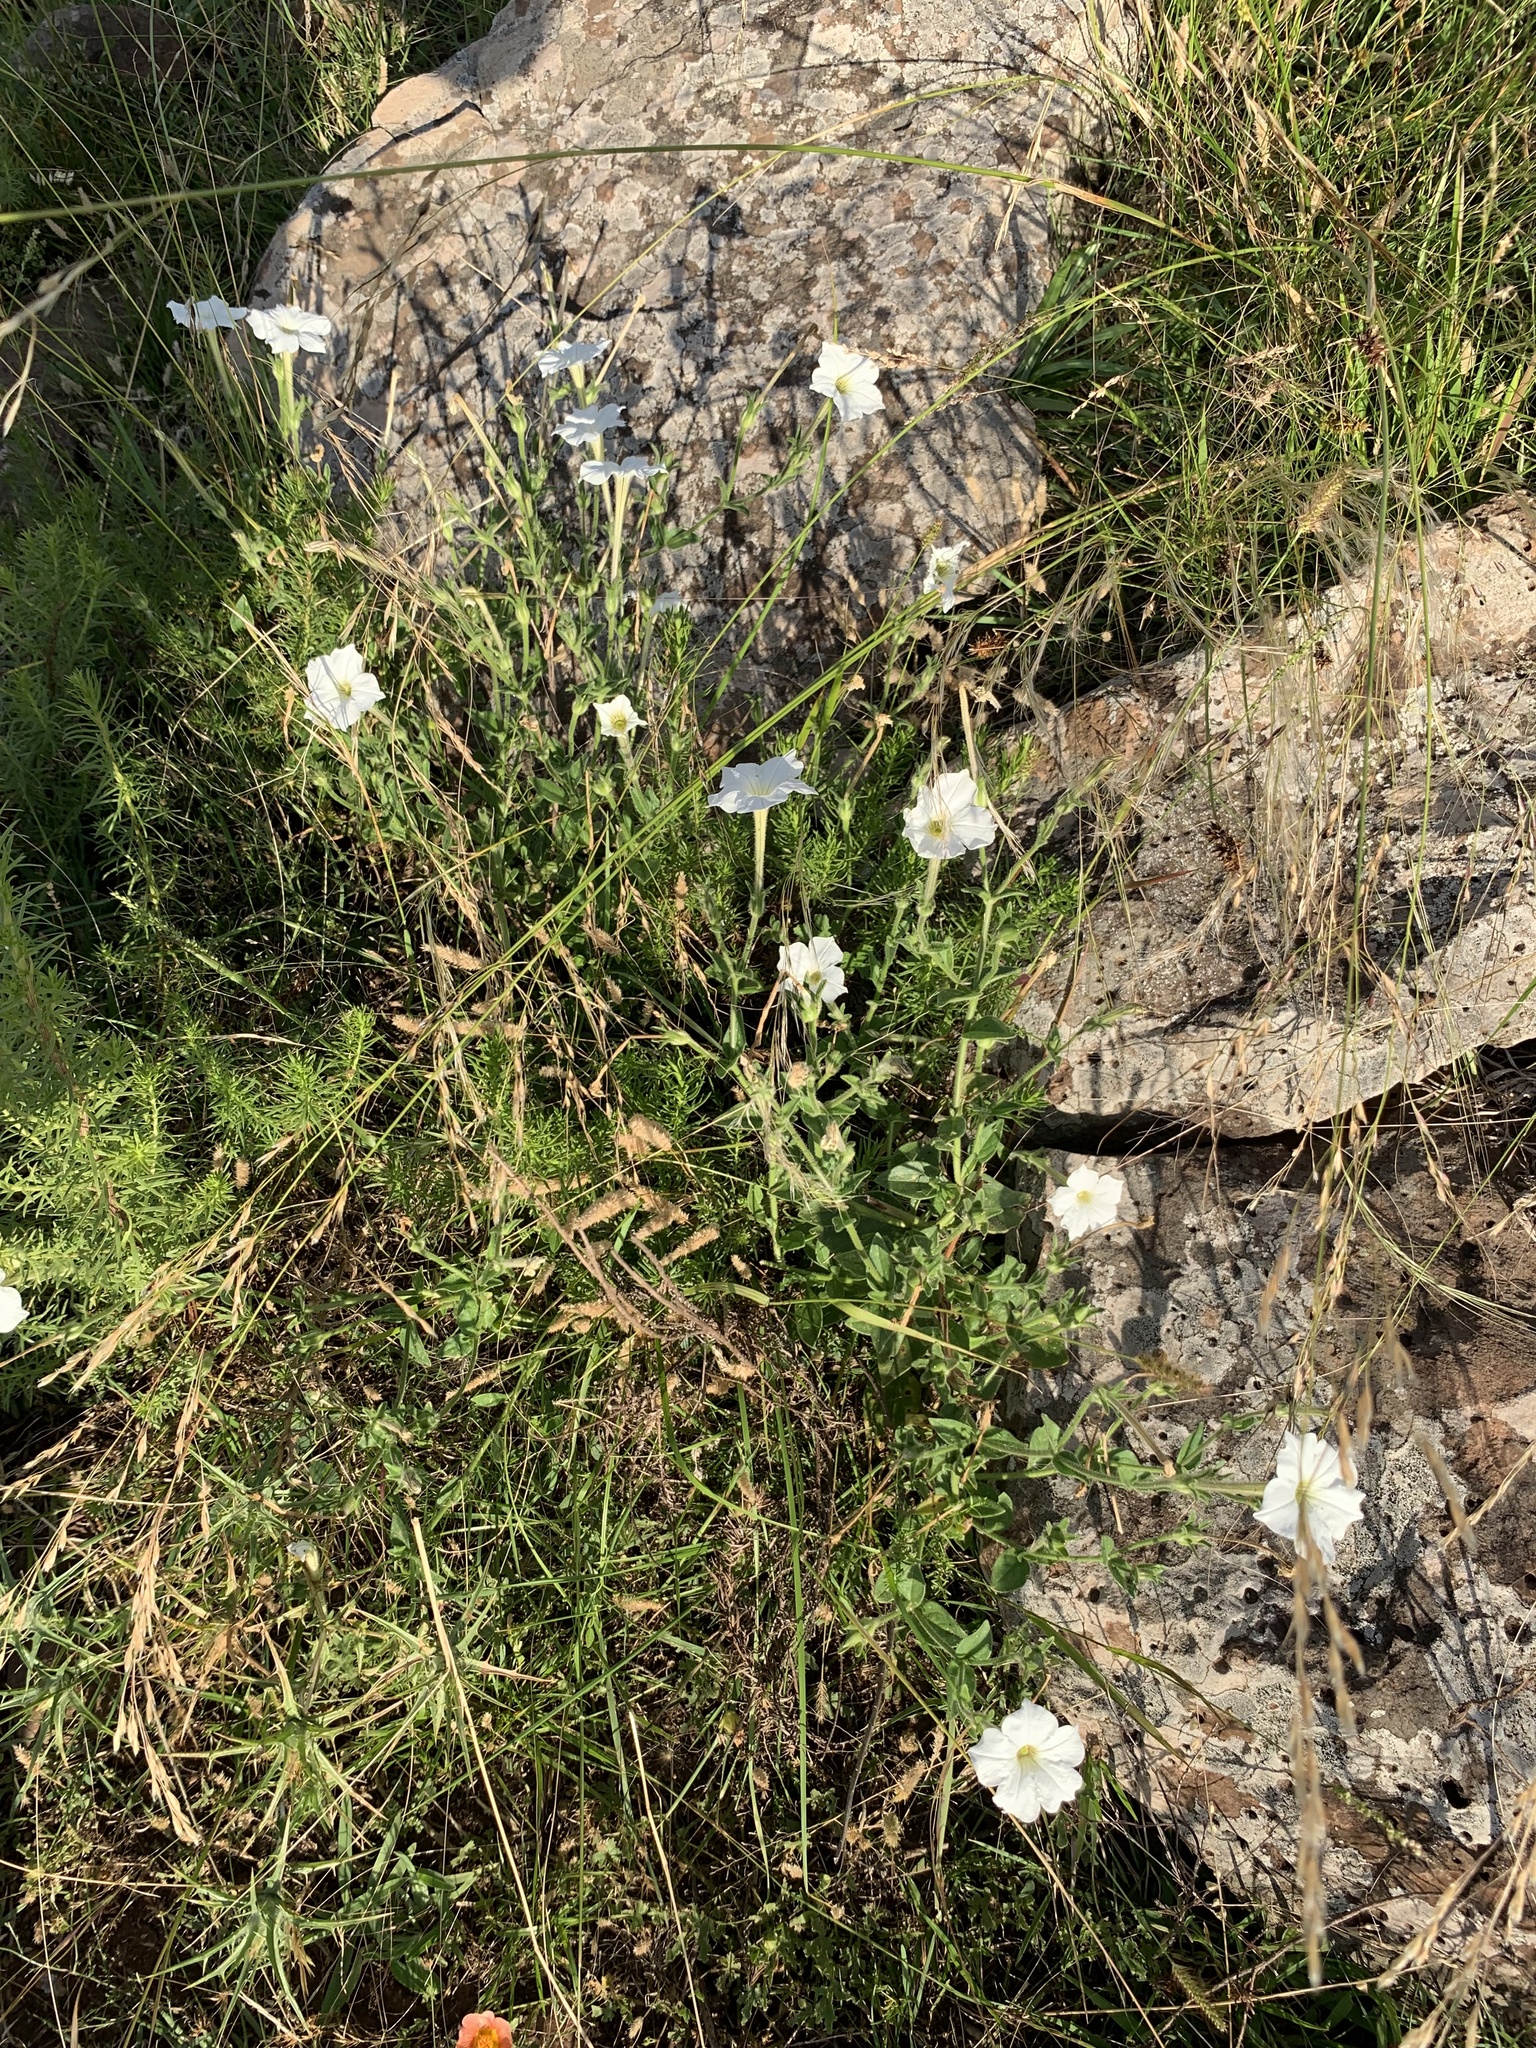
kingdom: Plantae
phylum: Tracheophyta
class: Magnoliopsida
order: Solanales
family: Solanaceae
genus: Petunia
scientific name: Petunia axillaris
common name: Large white petunia
